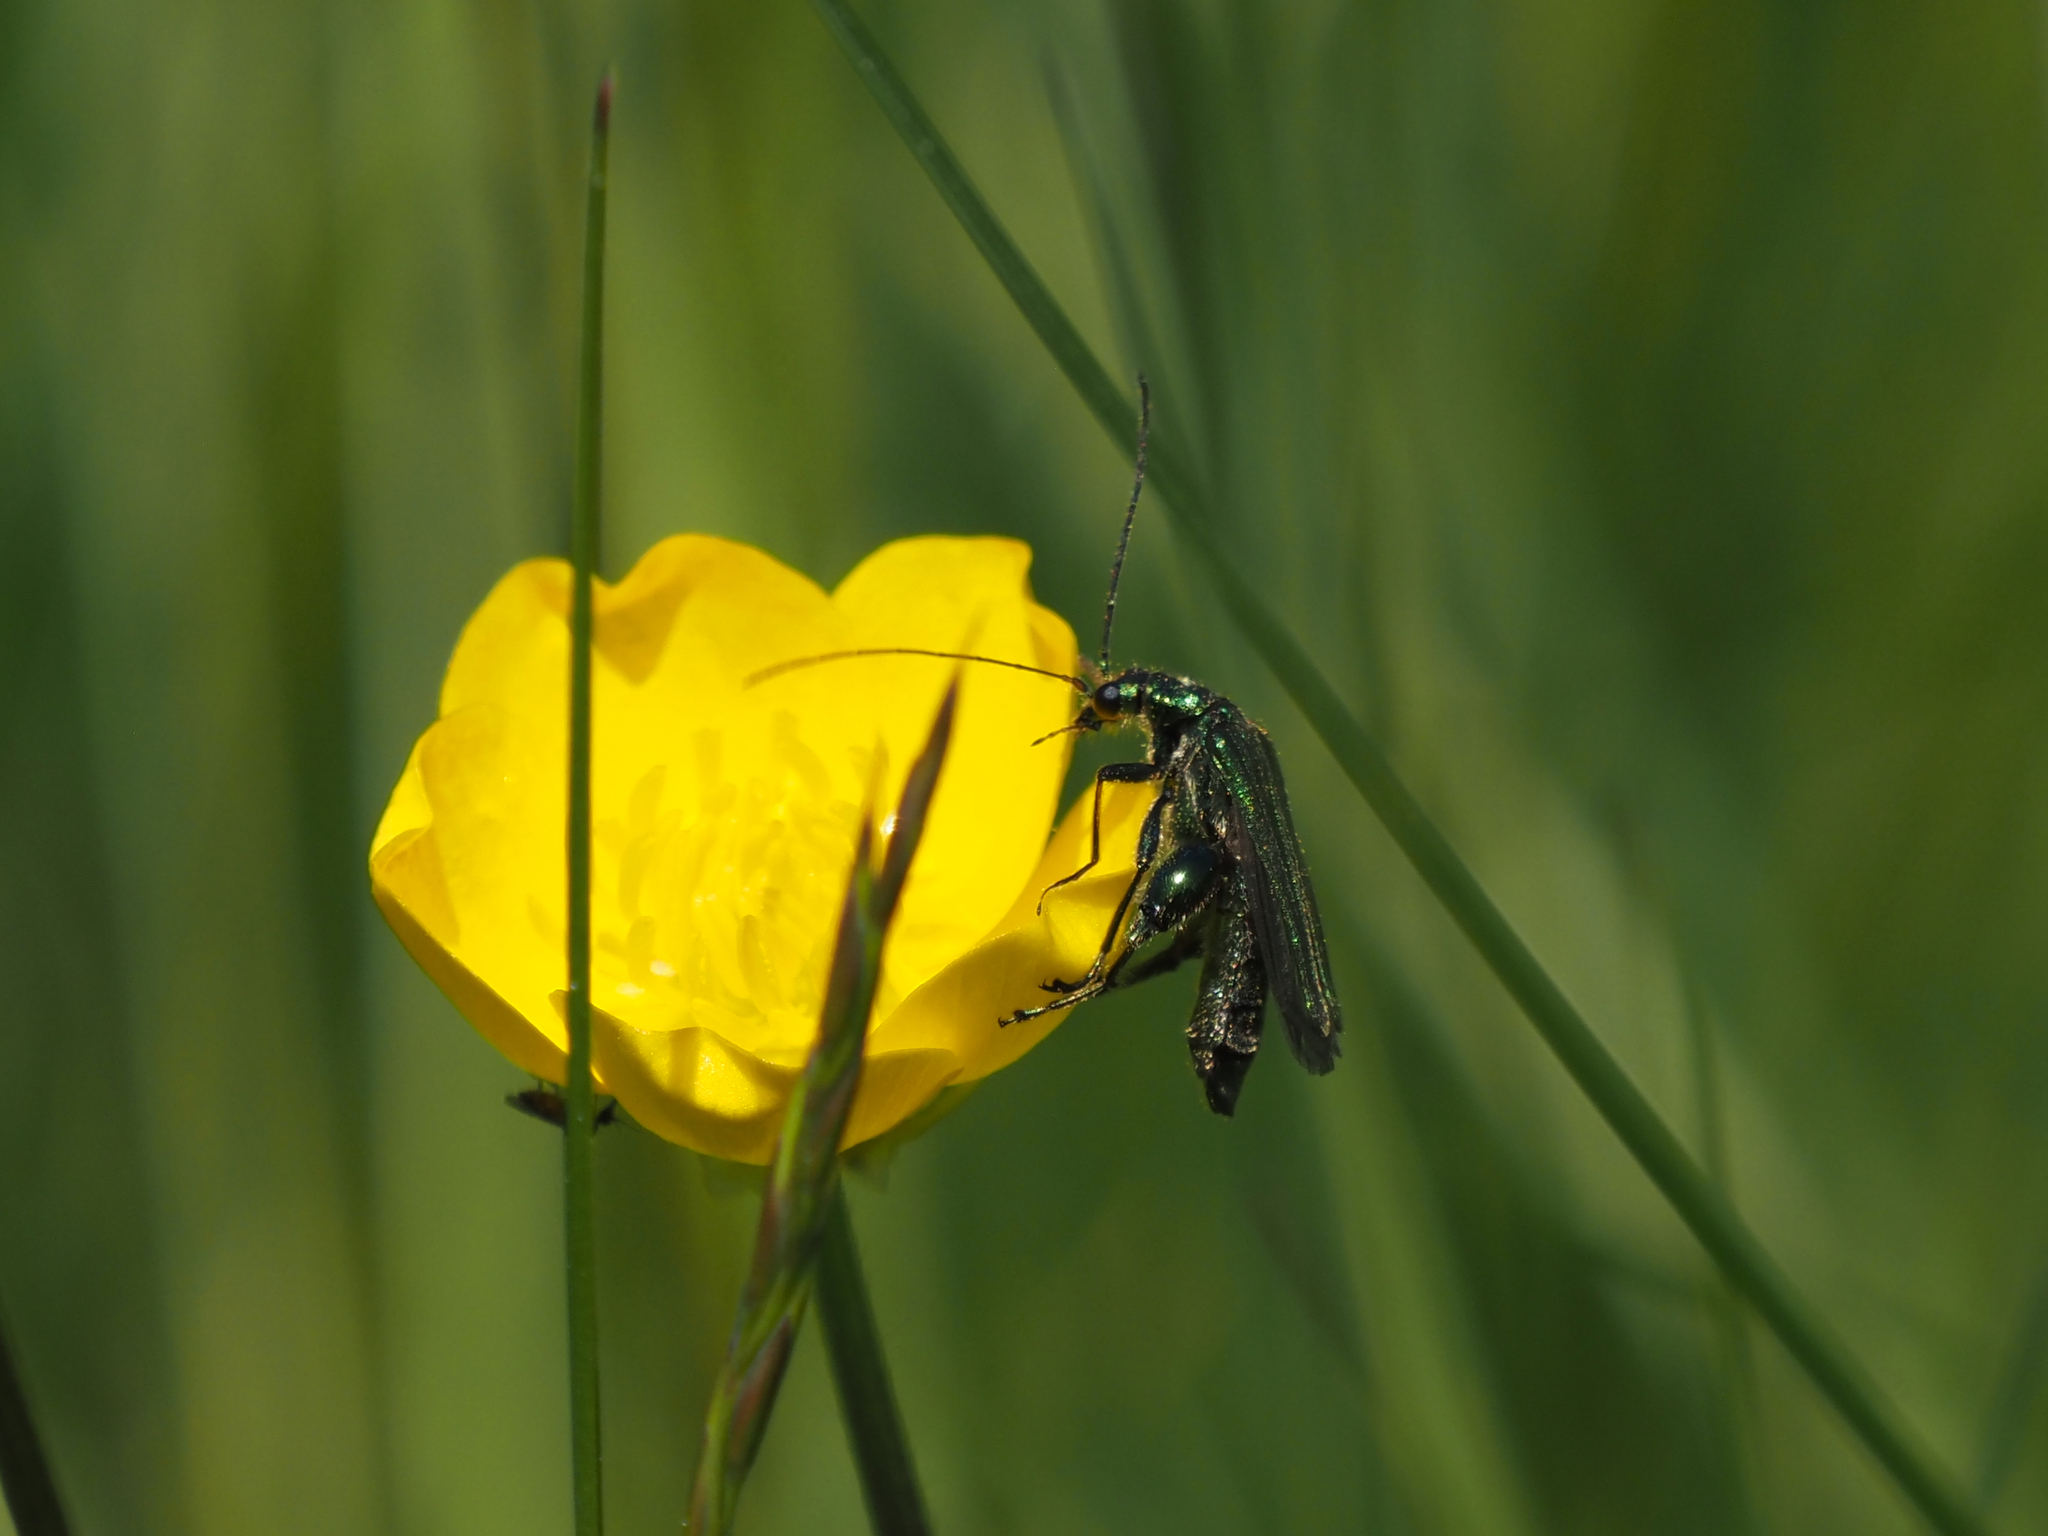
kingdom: Animalia
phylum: Arthropoda
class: Insecta
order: Coleoptera
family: Oedemeridae
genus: Oedemera
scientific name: Oedemera nobilis
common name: Swollen-thighed beetle
